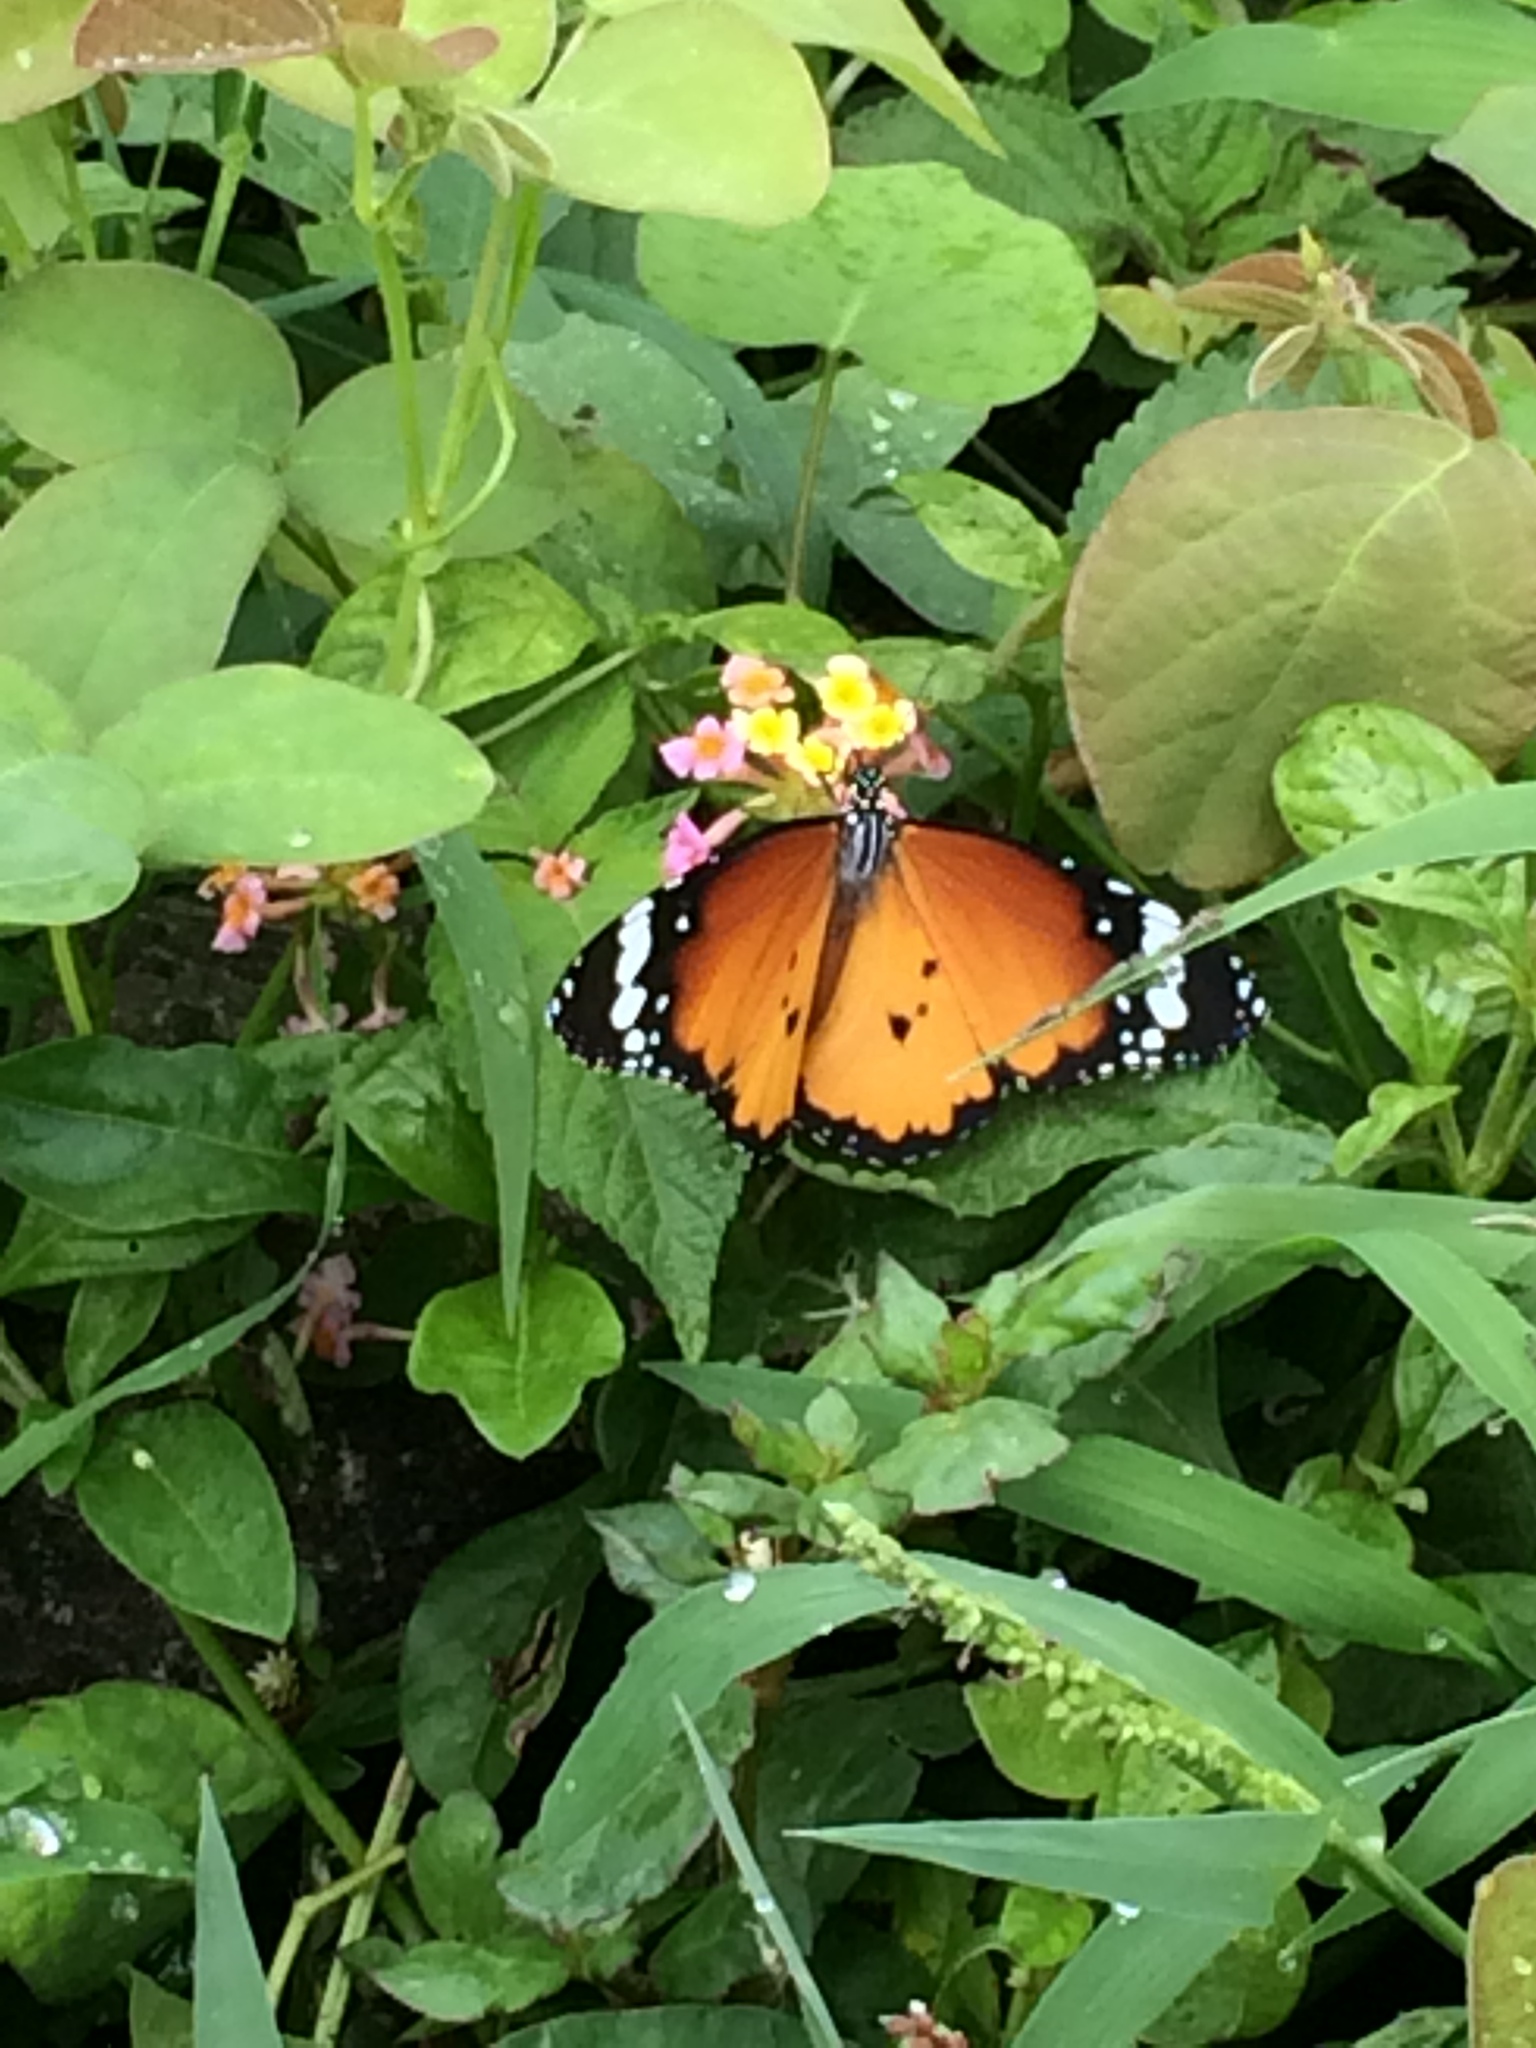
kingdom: Animalia
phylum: Arthropoda
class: Insecta
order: Lepidoptera
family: Nymphalidae
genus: Danaus
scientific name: Danaus chrysippus
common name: Plain tiger
